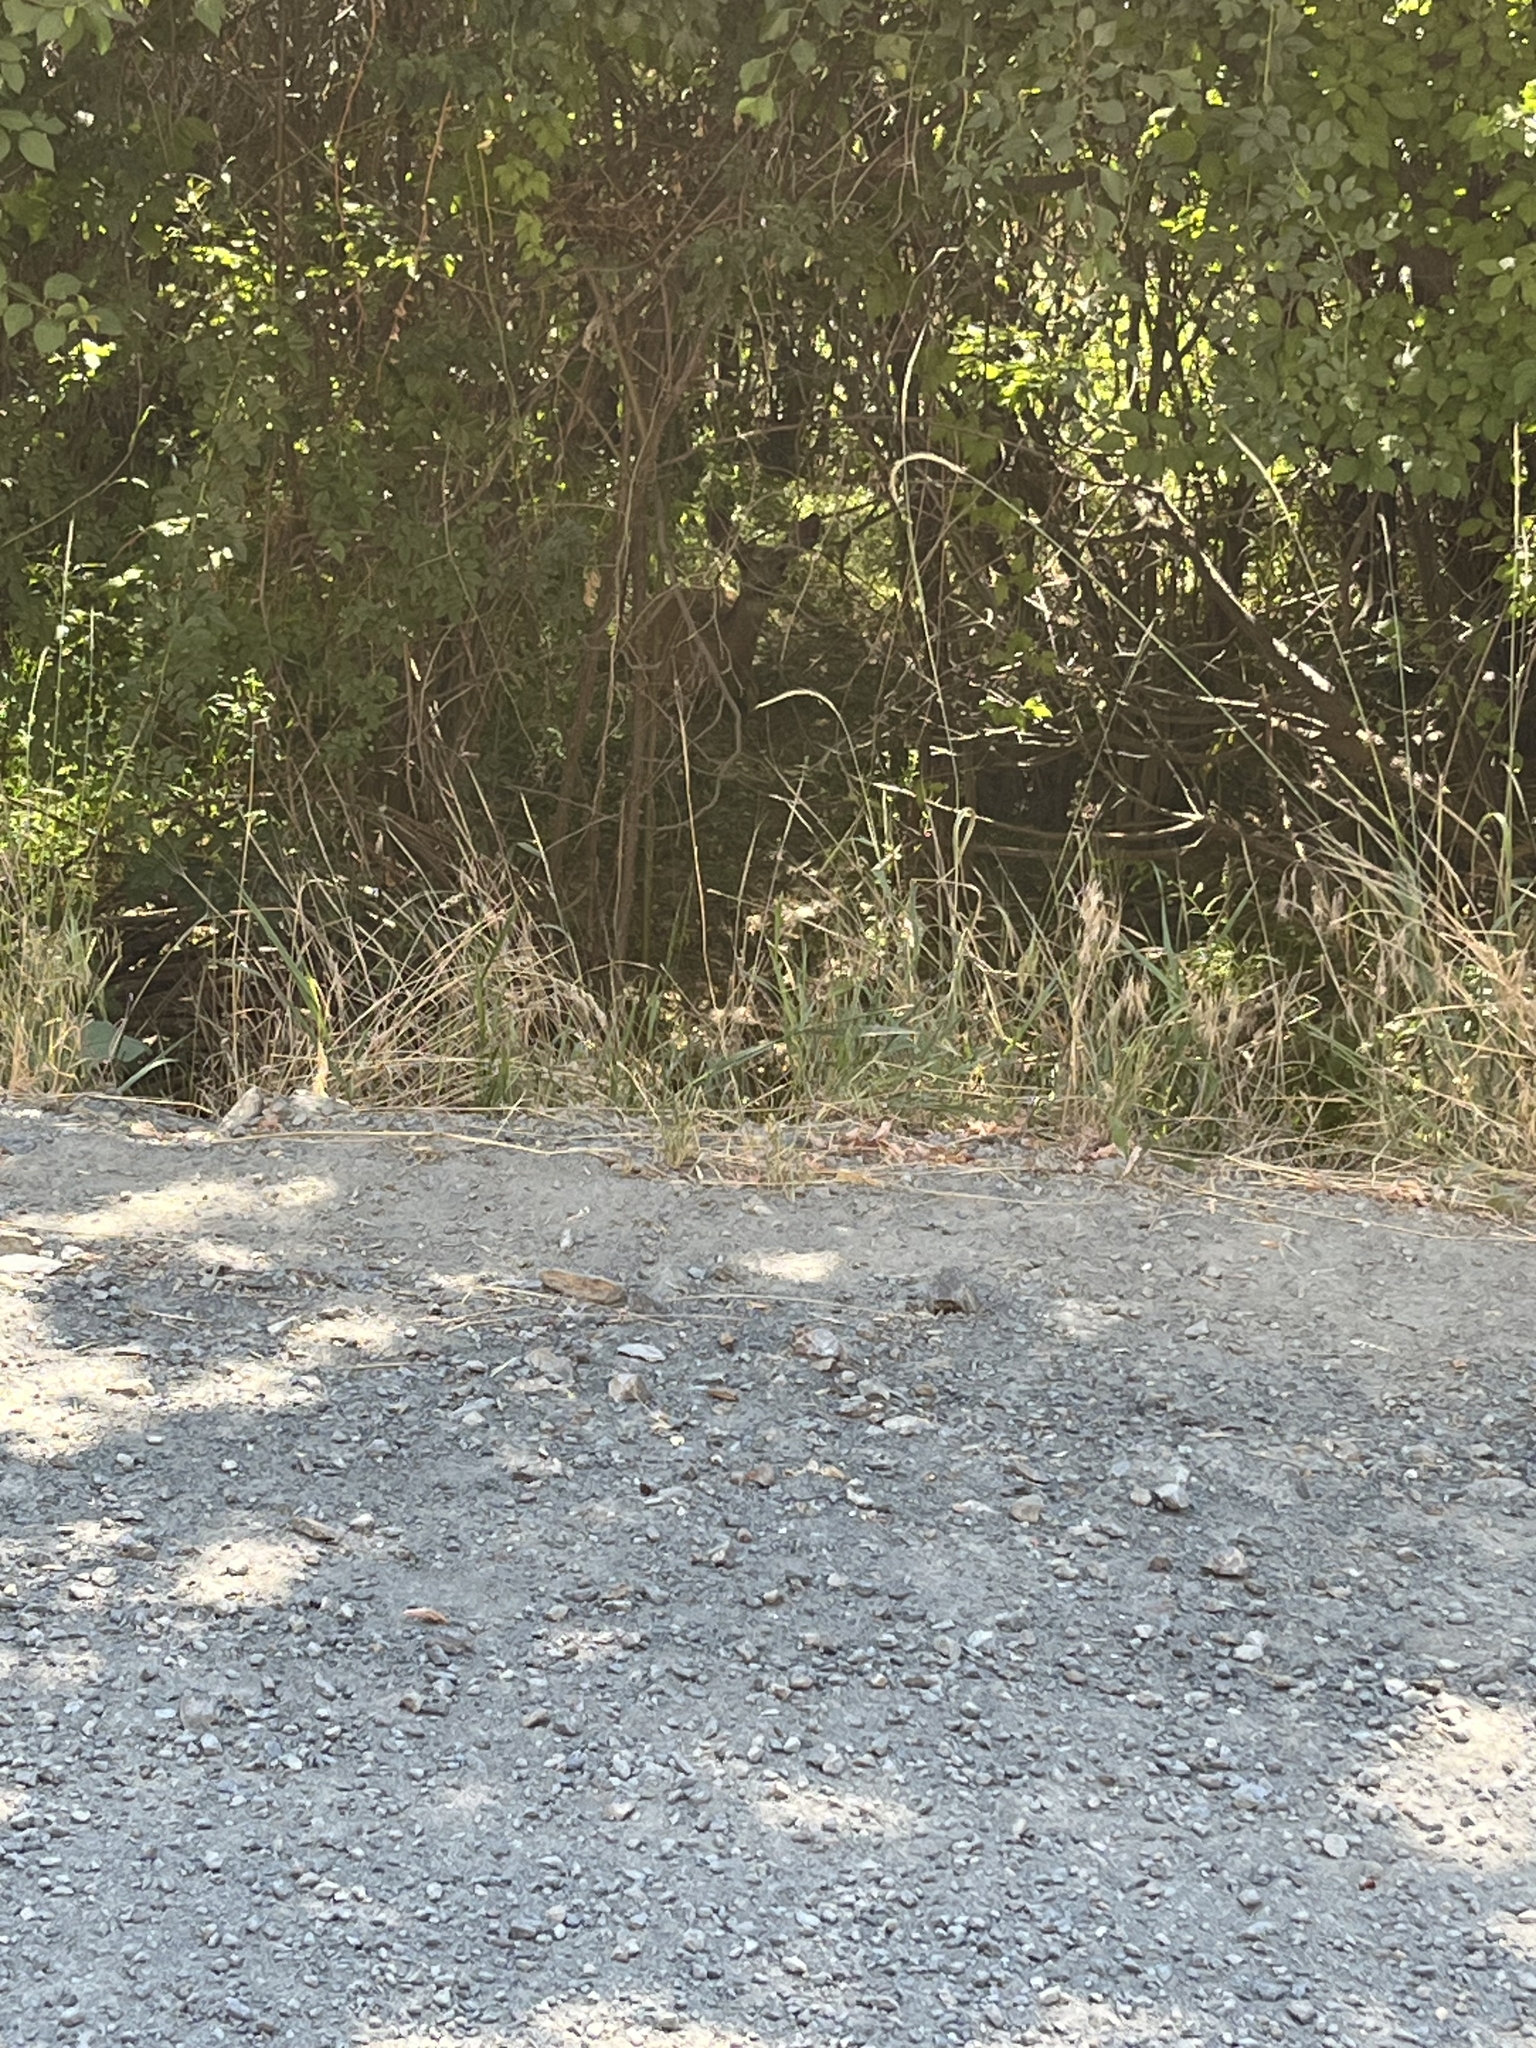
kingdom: Animalia
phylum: Chordata
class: Mammalia
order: Artiodactyla
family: Cervidae
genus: Odocoileus
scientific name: Odocoileus hemionus
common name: Mule deer
